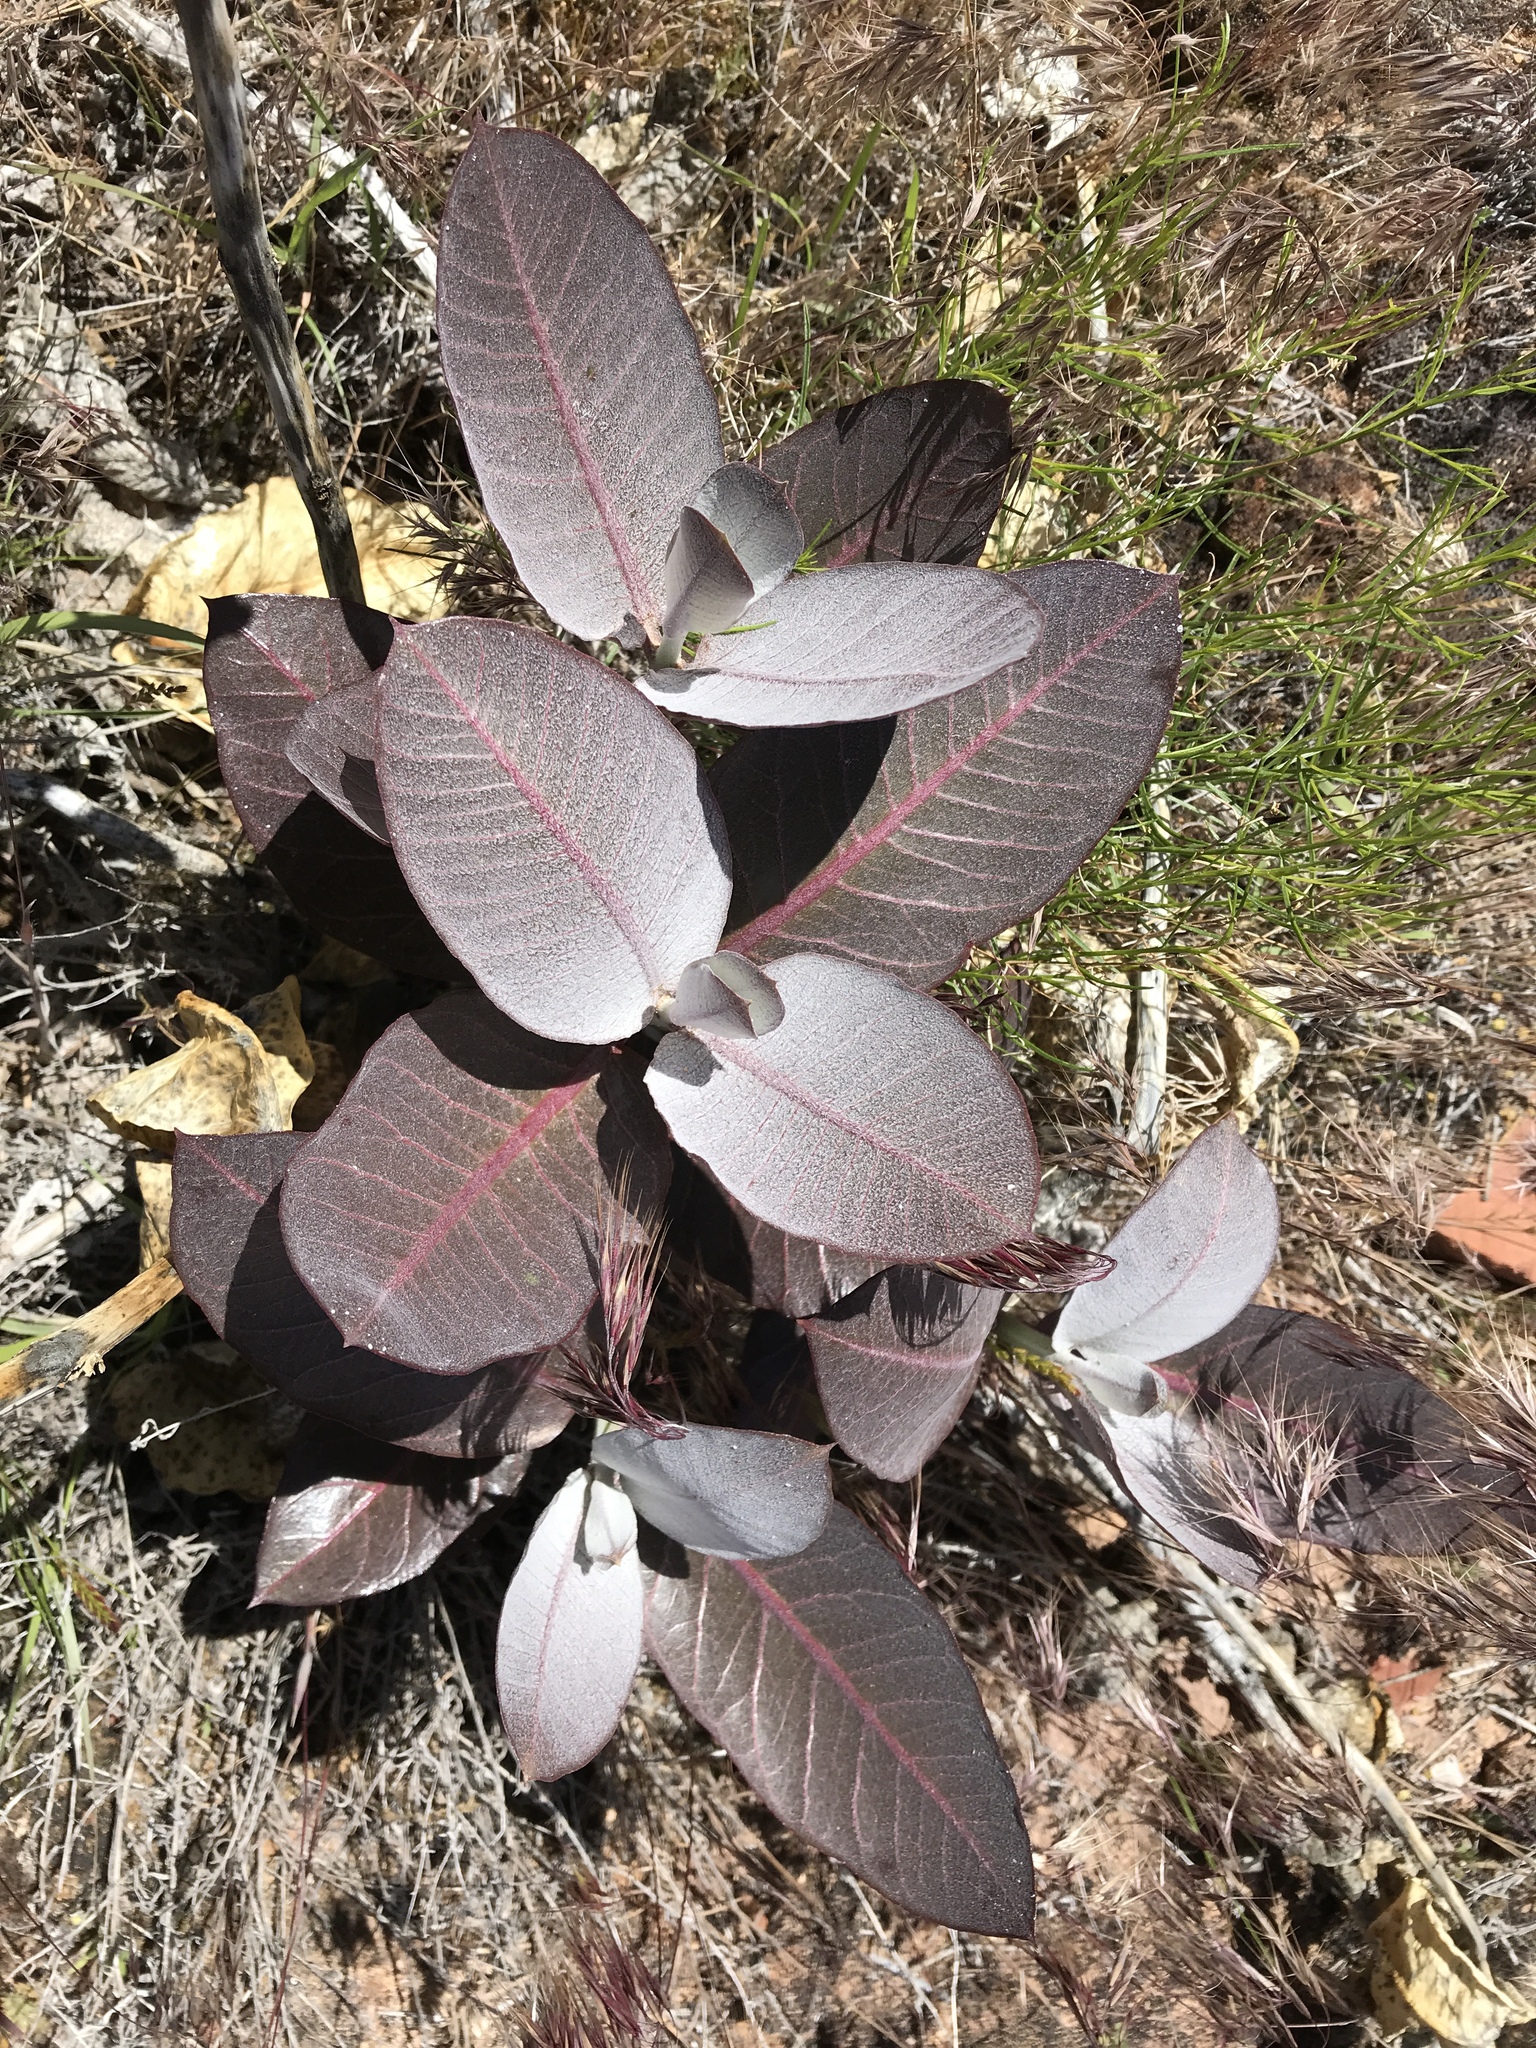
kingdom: Plantae
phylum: Tracheophyta
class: Magnoliopsida
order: Gentianales
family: Apocynaceae
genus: Asclepias
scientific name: Asclepias latifolia
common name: Broadleaf milkweed
